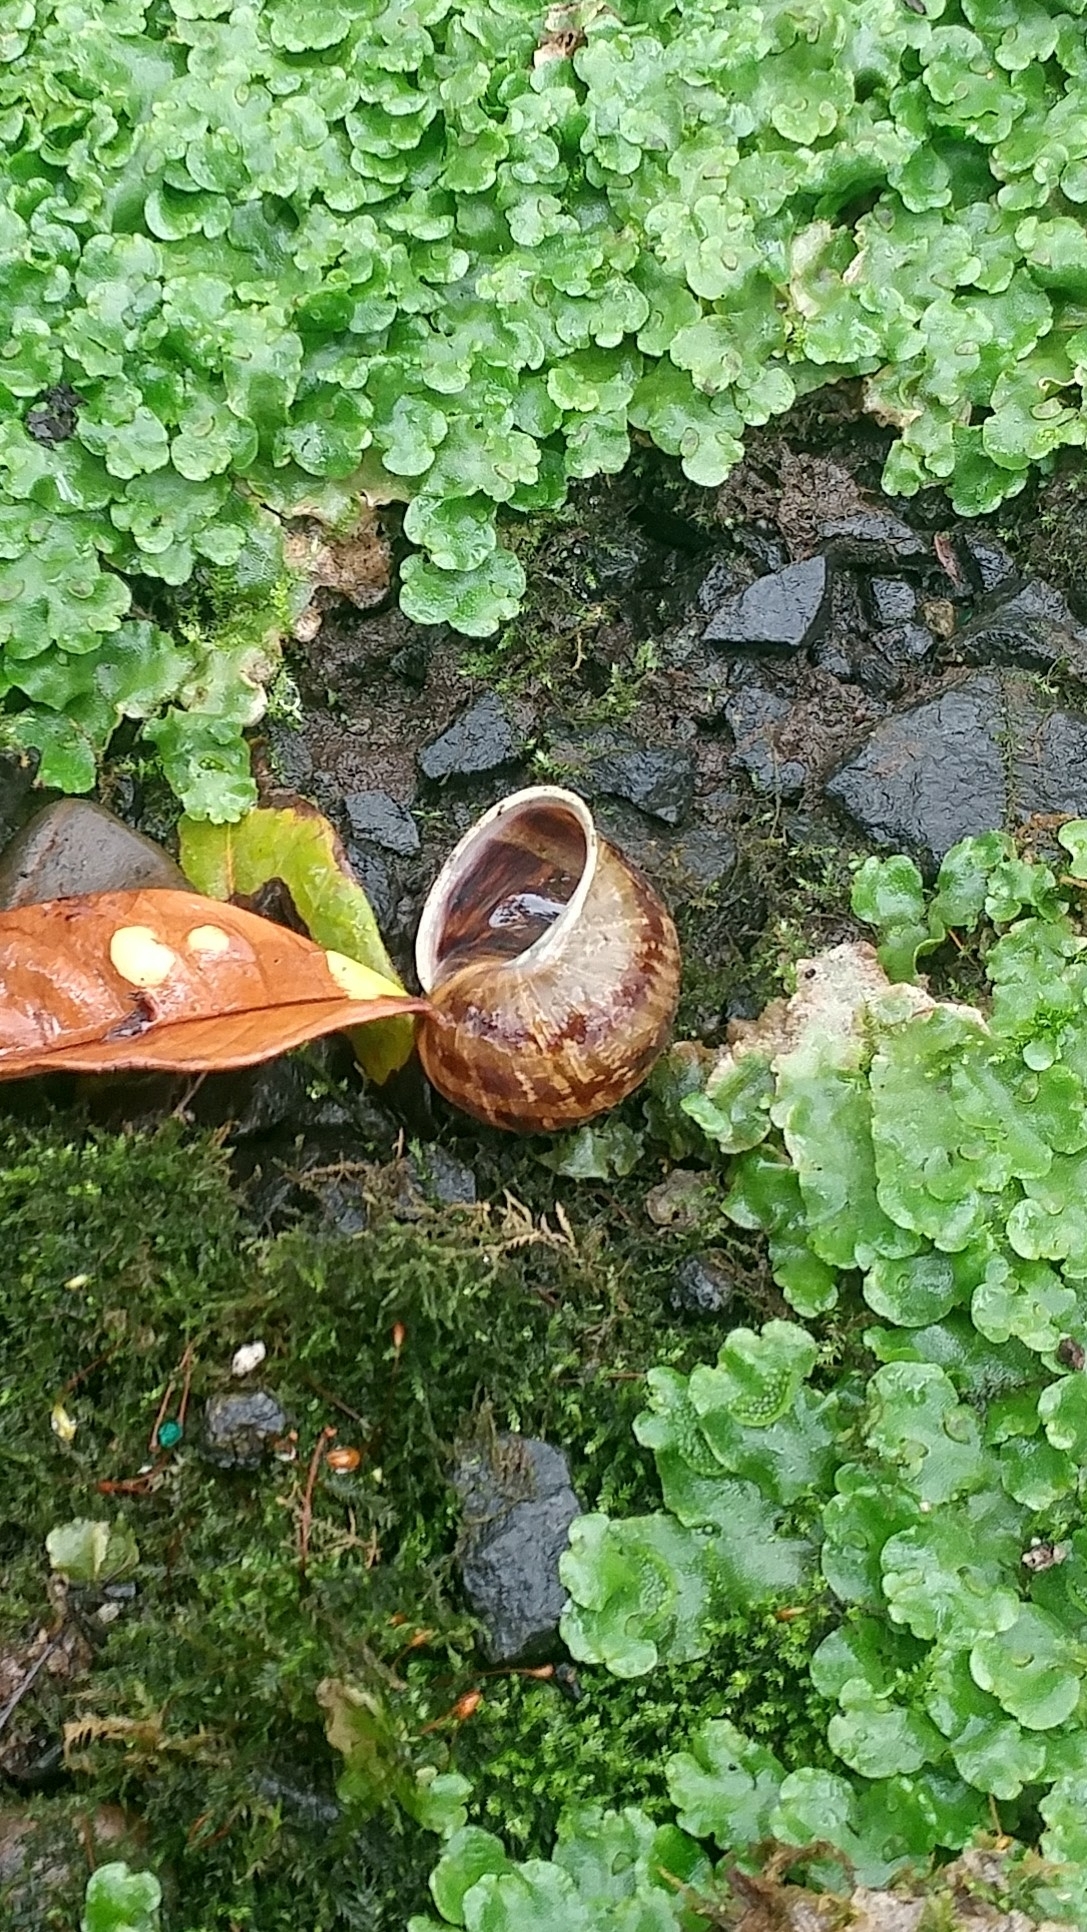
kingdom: Animalia
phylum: Mollusca
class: Gastropoda
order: Stylommatophora
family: Helicidae
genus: Cornu
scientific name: Cornu aspersum
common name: Brown garden snail
